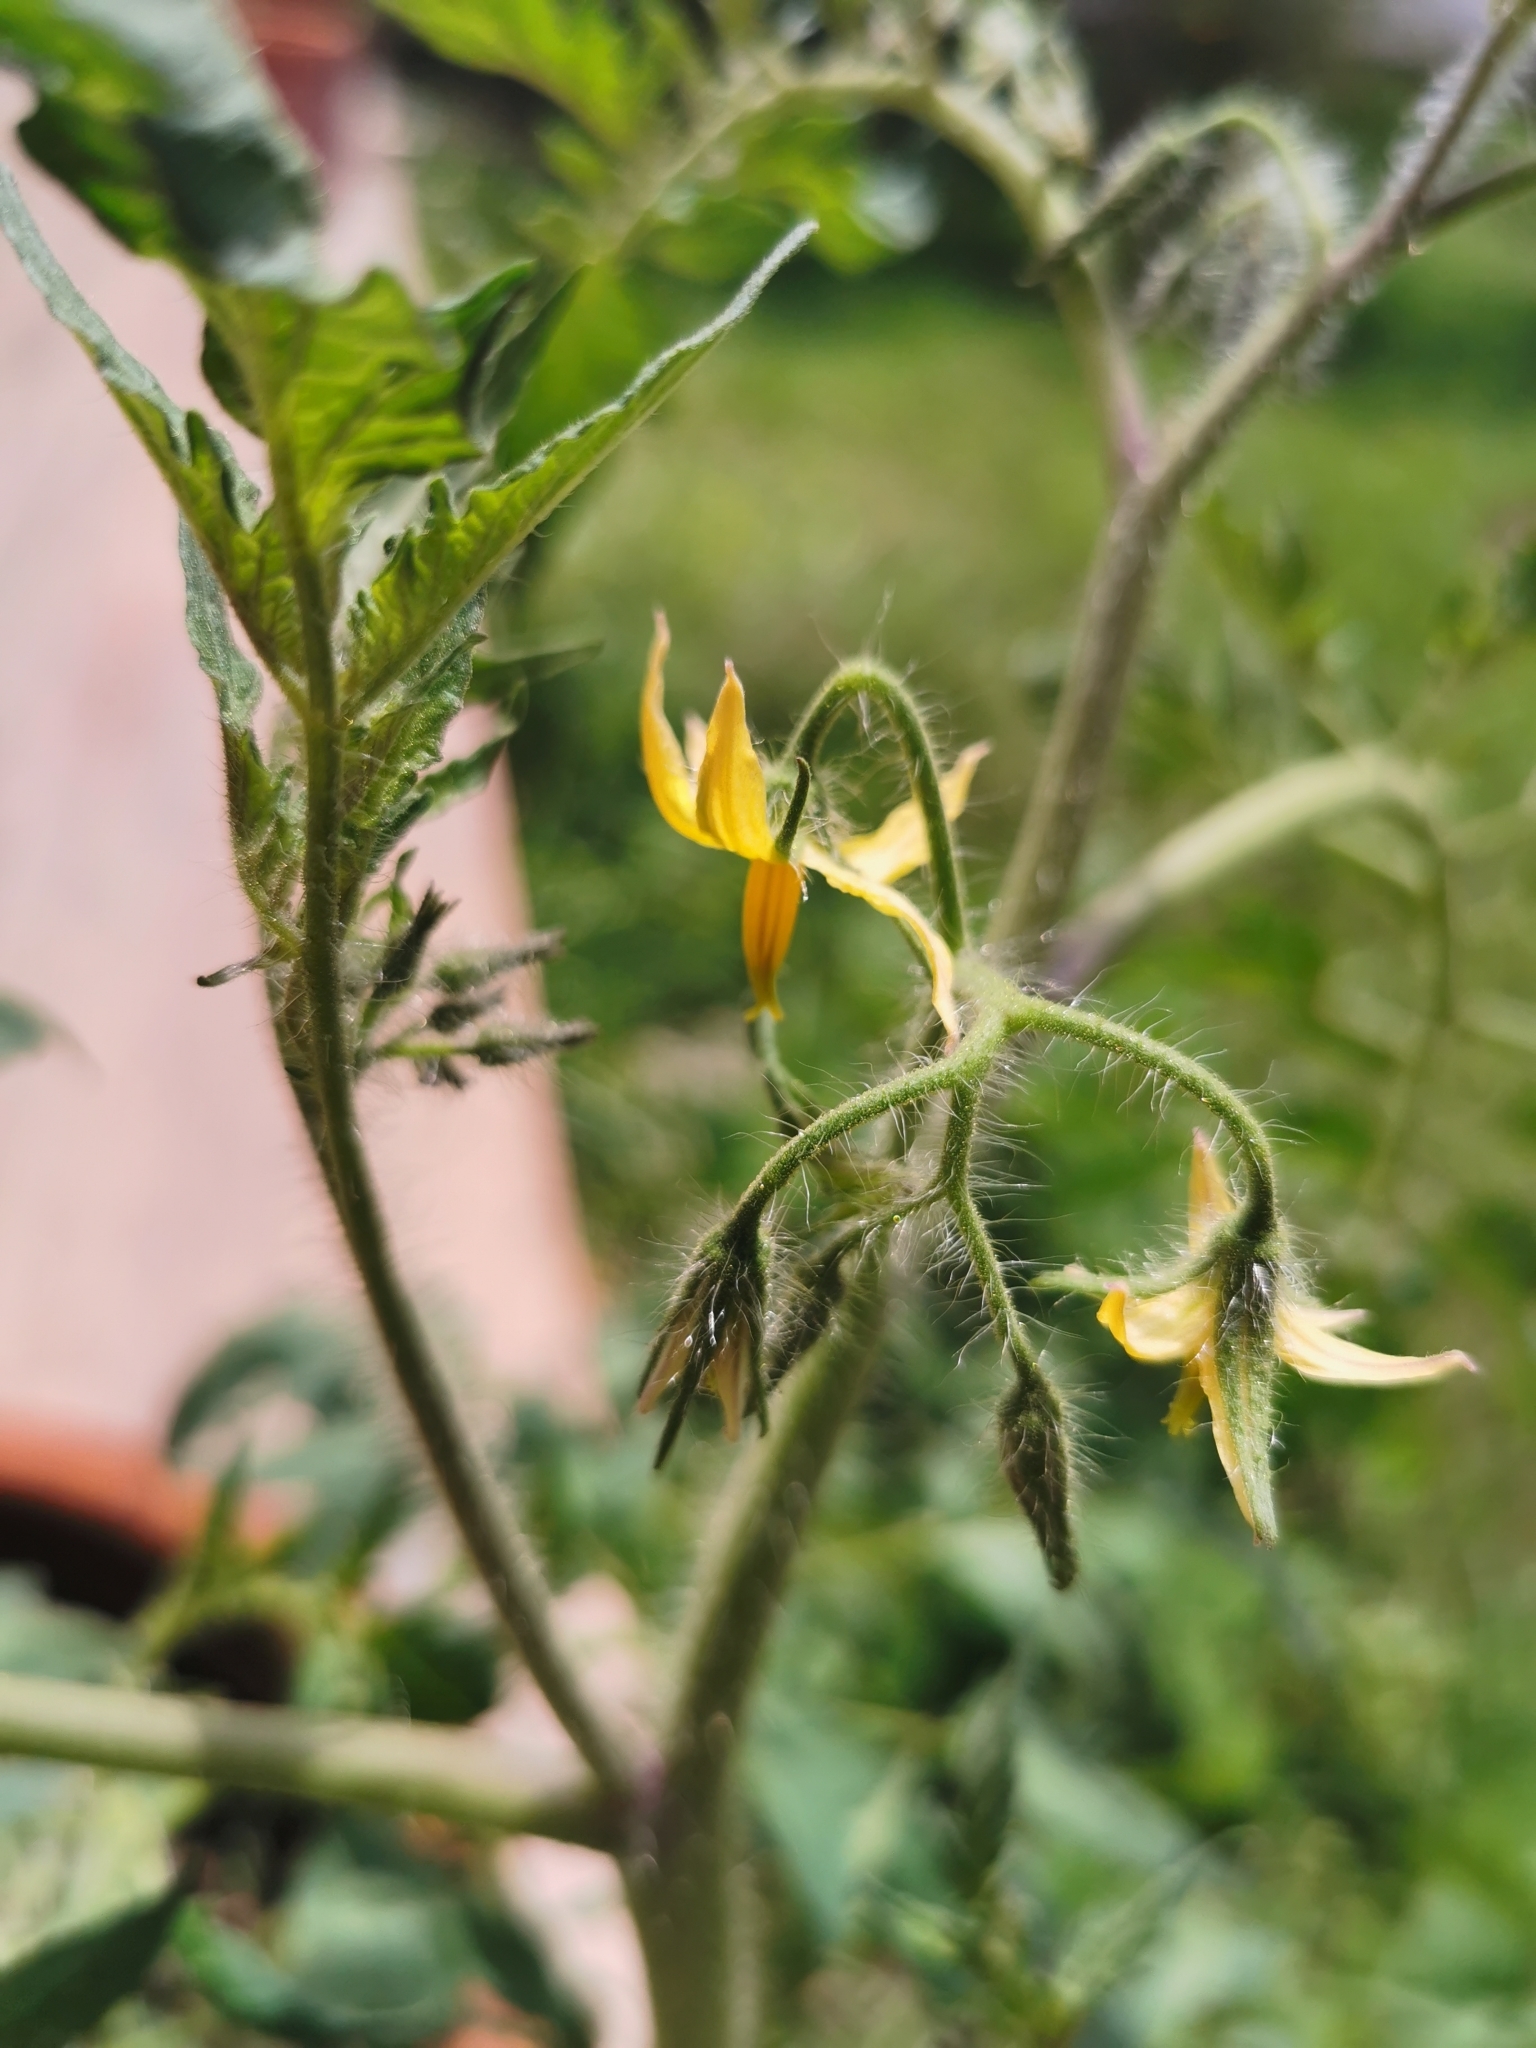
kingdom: Plantae
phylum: Tracheophyta
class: Magnoliopsida
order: Solanales
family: Solanaceae
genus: Solanum
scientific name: Solanum lycopersicum
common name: Garden tomato
